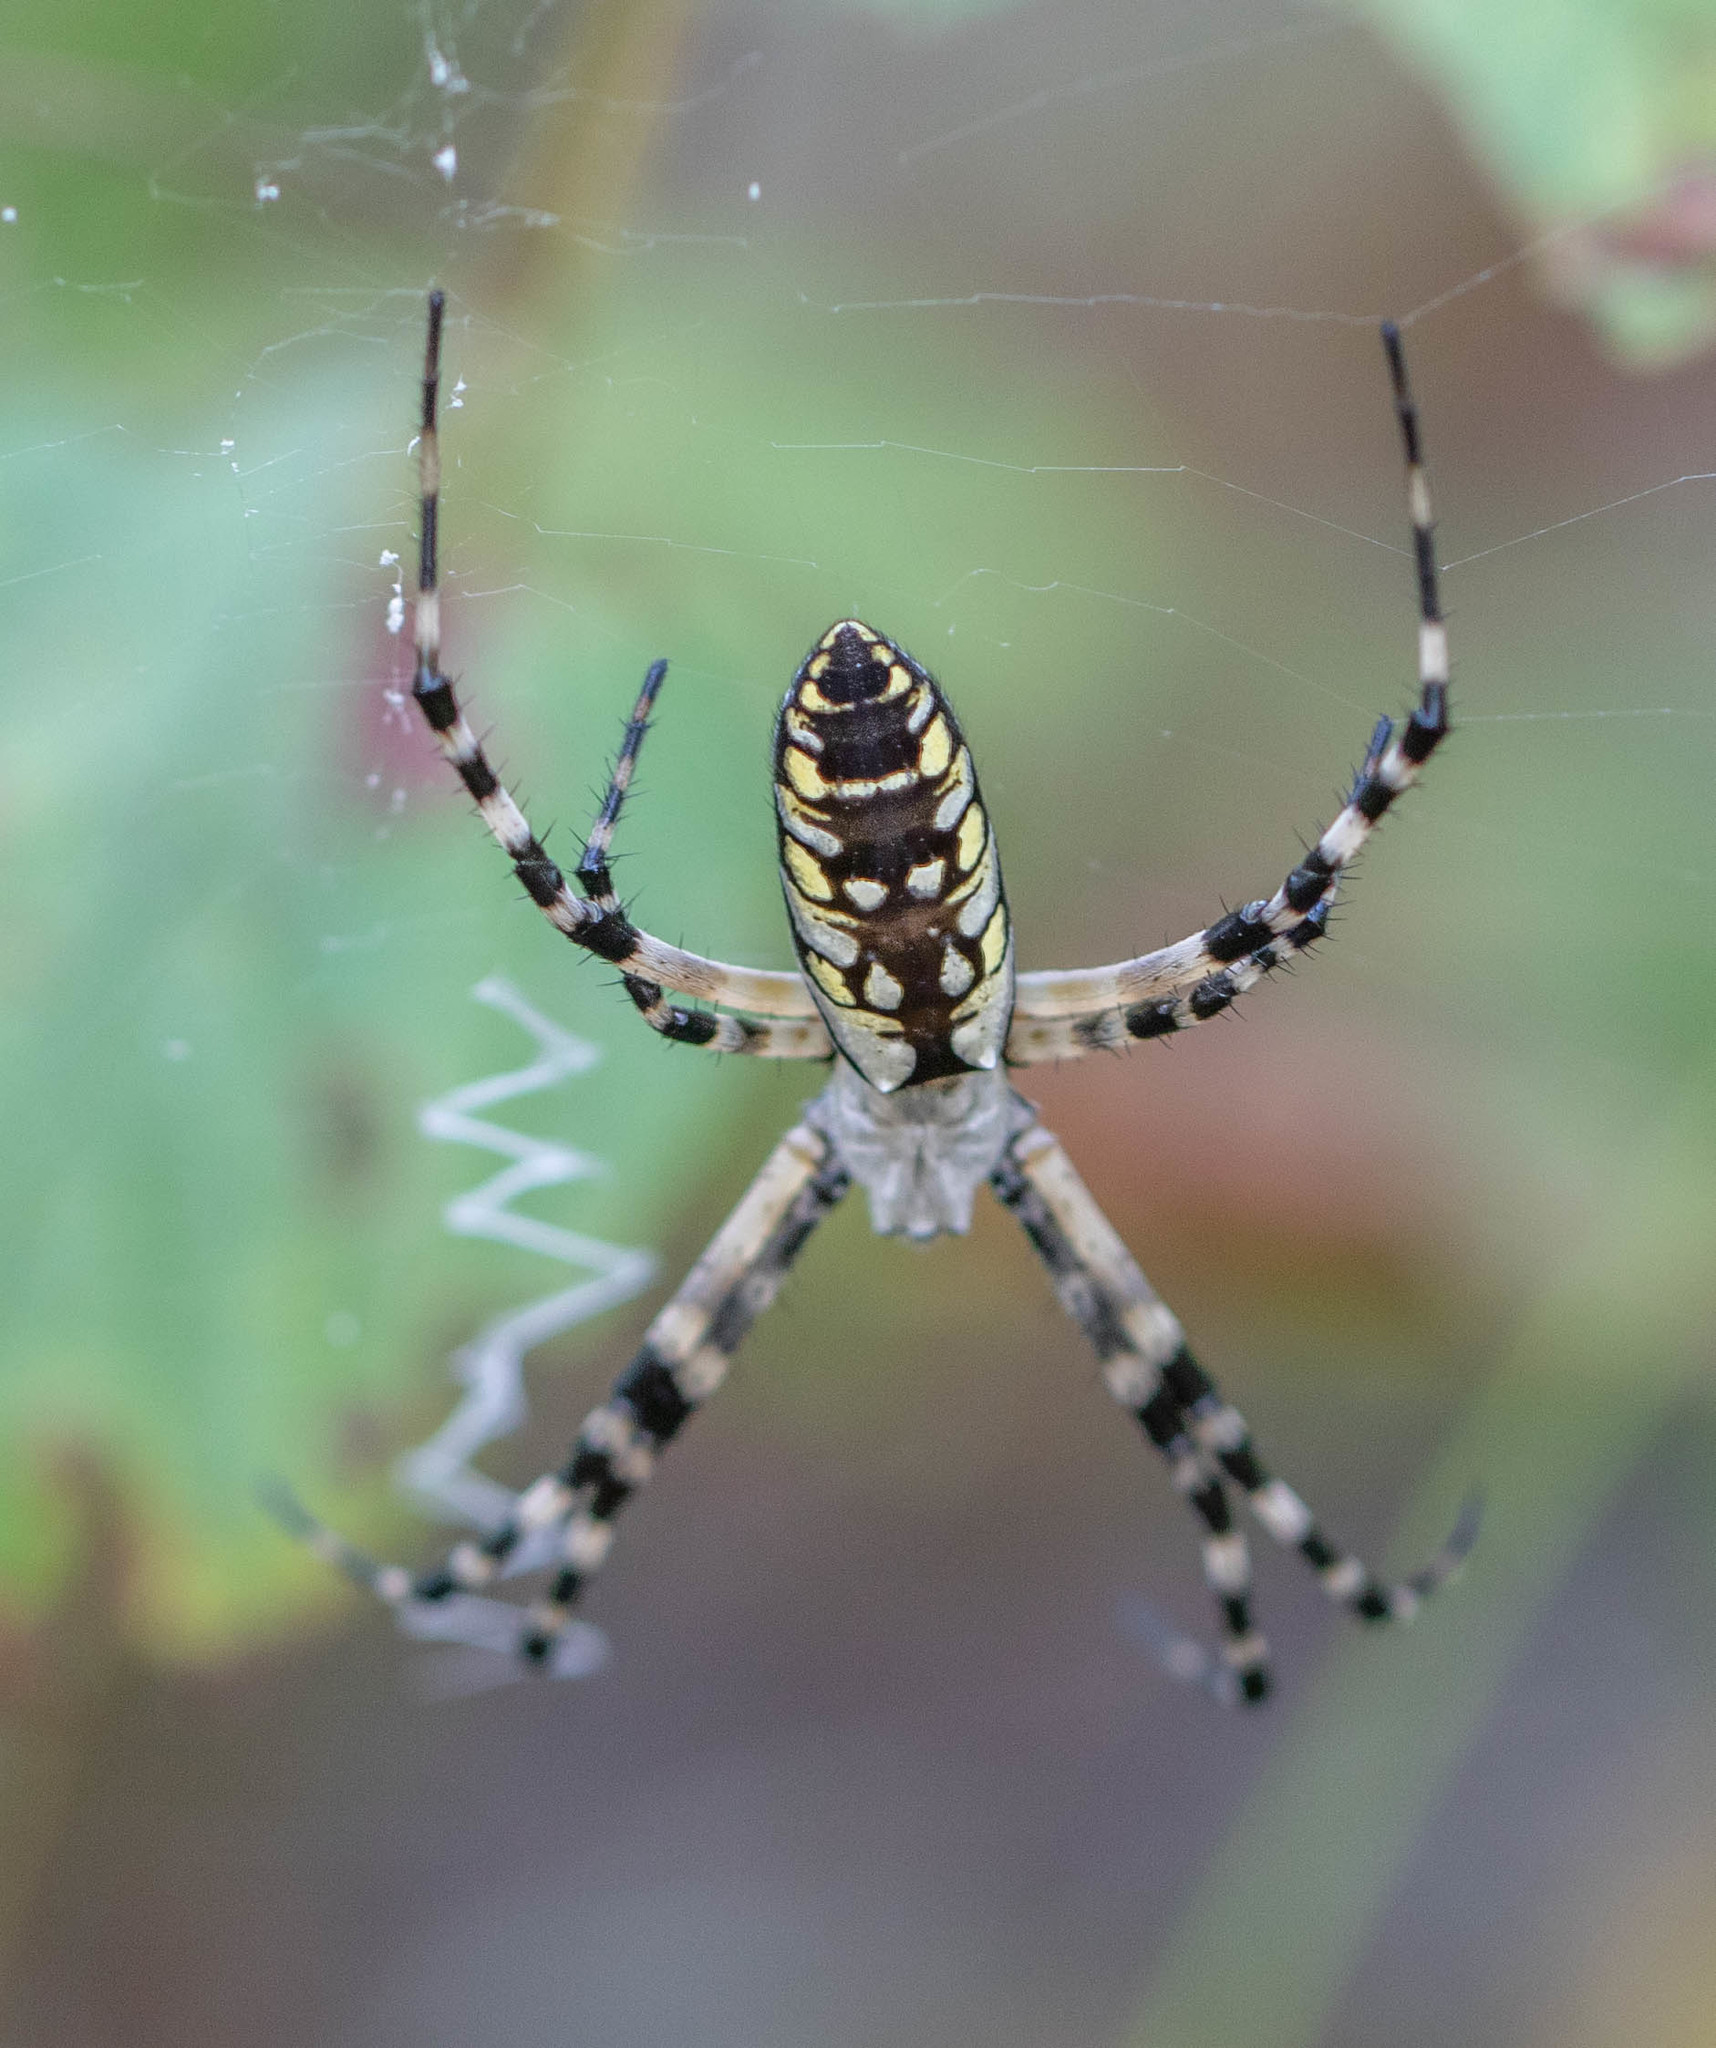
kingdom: Animalia
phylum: Arthropoda
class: Arachnida
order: Araneae
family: Araneidae
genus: Argiope
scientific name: Argiope aurantia
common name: Orb weavers
